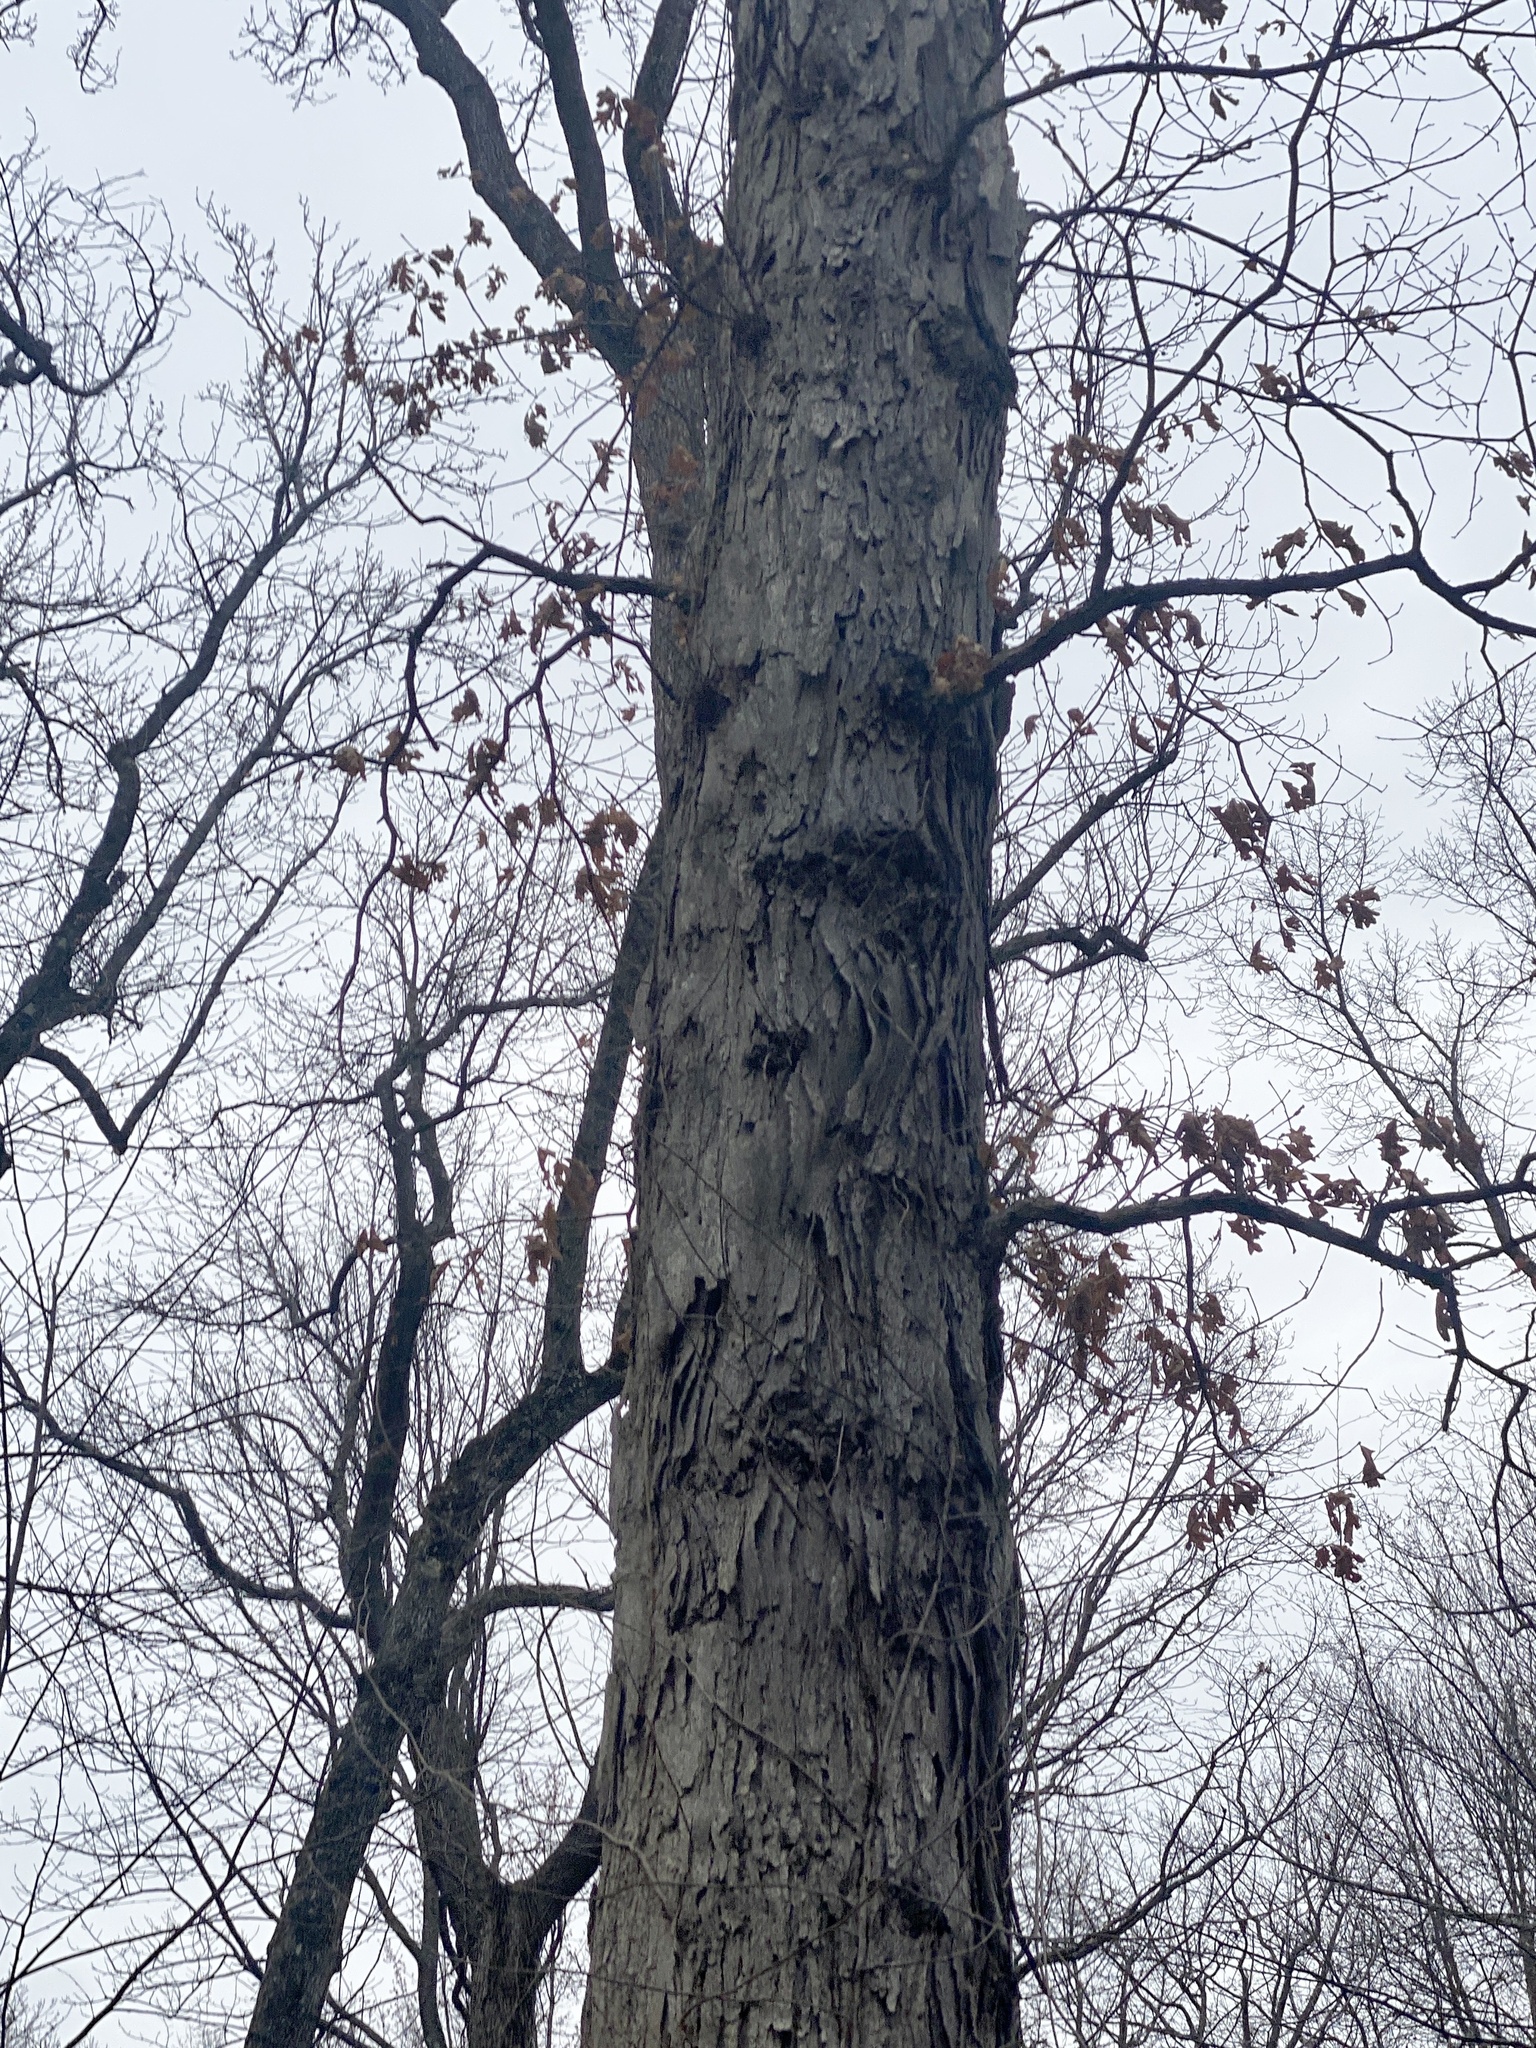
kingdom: Plantae
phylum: Tracheophyta
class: Magnoliopsida
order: Fagales
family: Fagaceae
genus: Quercus
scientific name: Quercus alba
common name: White oak
